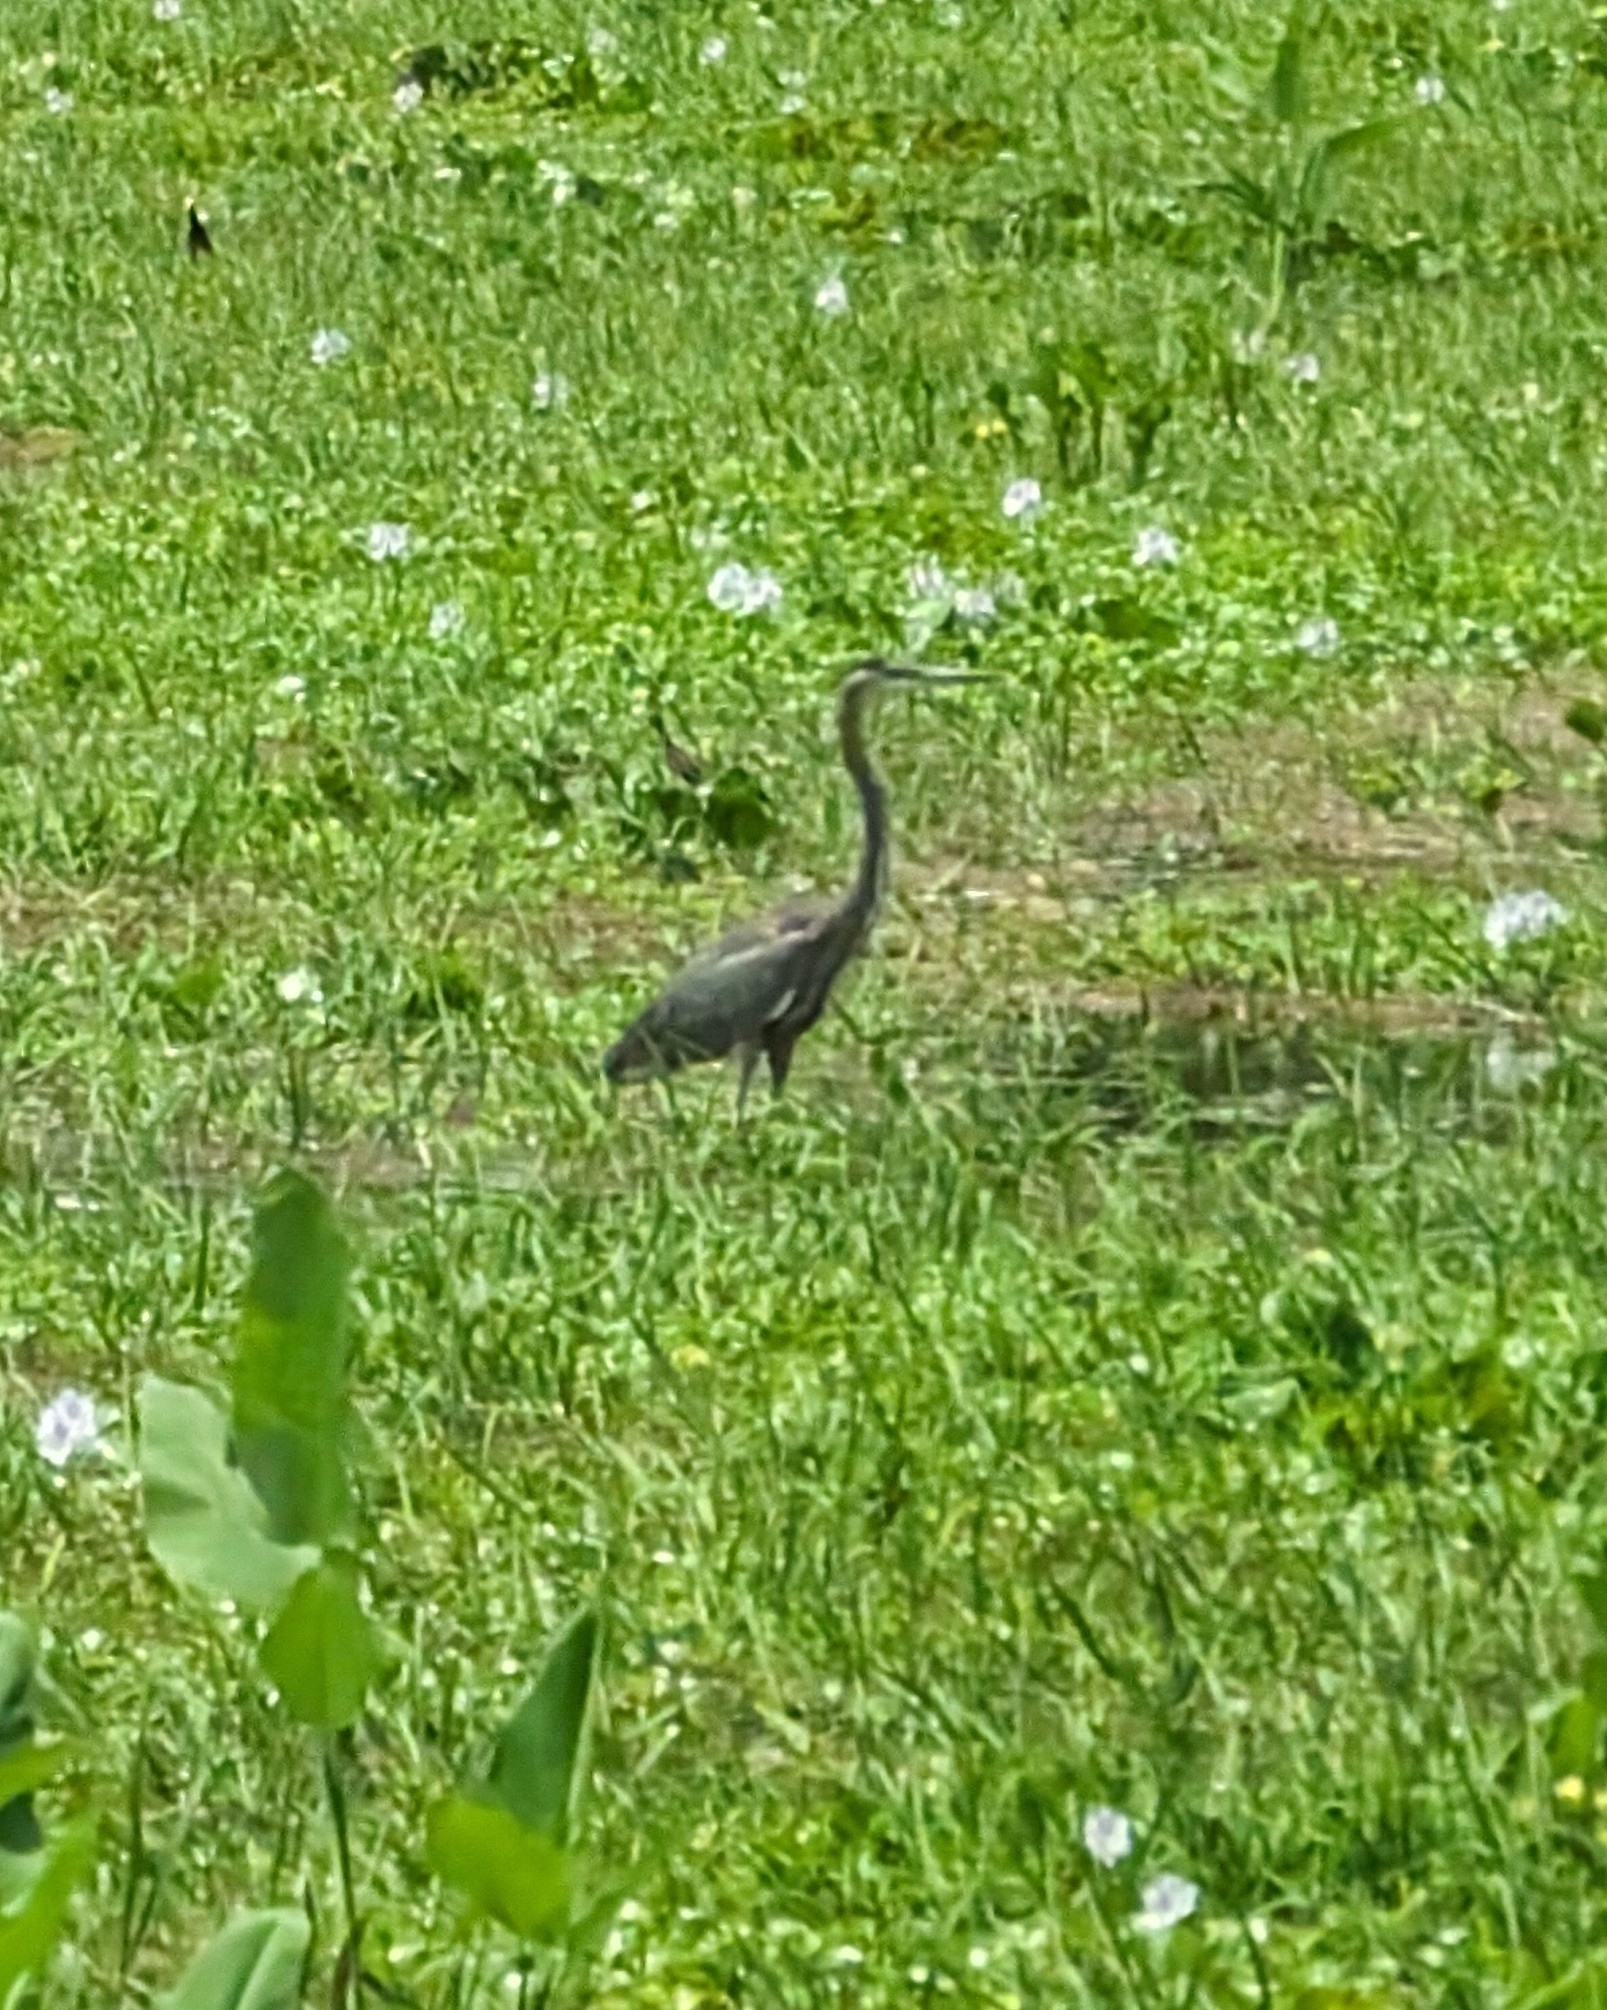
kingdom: Animalia
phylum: Chordata
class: Aves
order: Pelecaniformes
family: Ardeidae
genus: Ardea
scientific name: Ardea herodias
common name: Great blue heron
